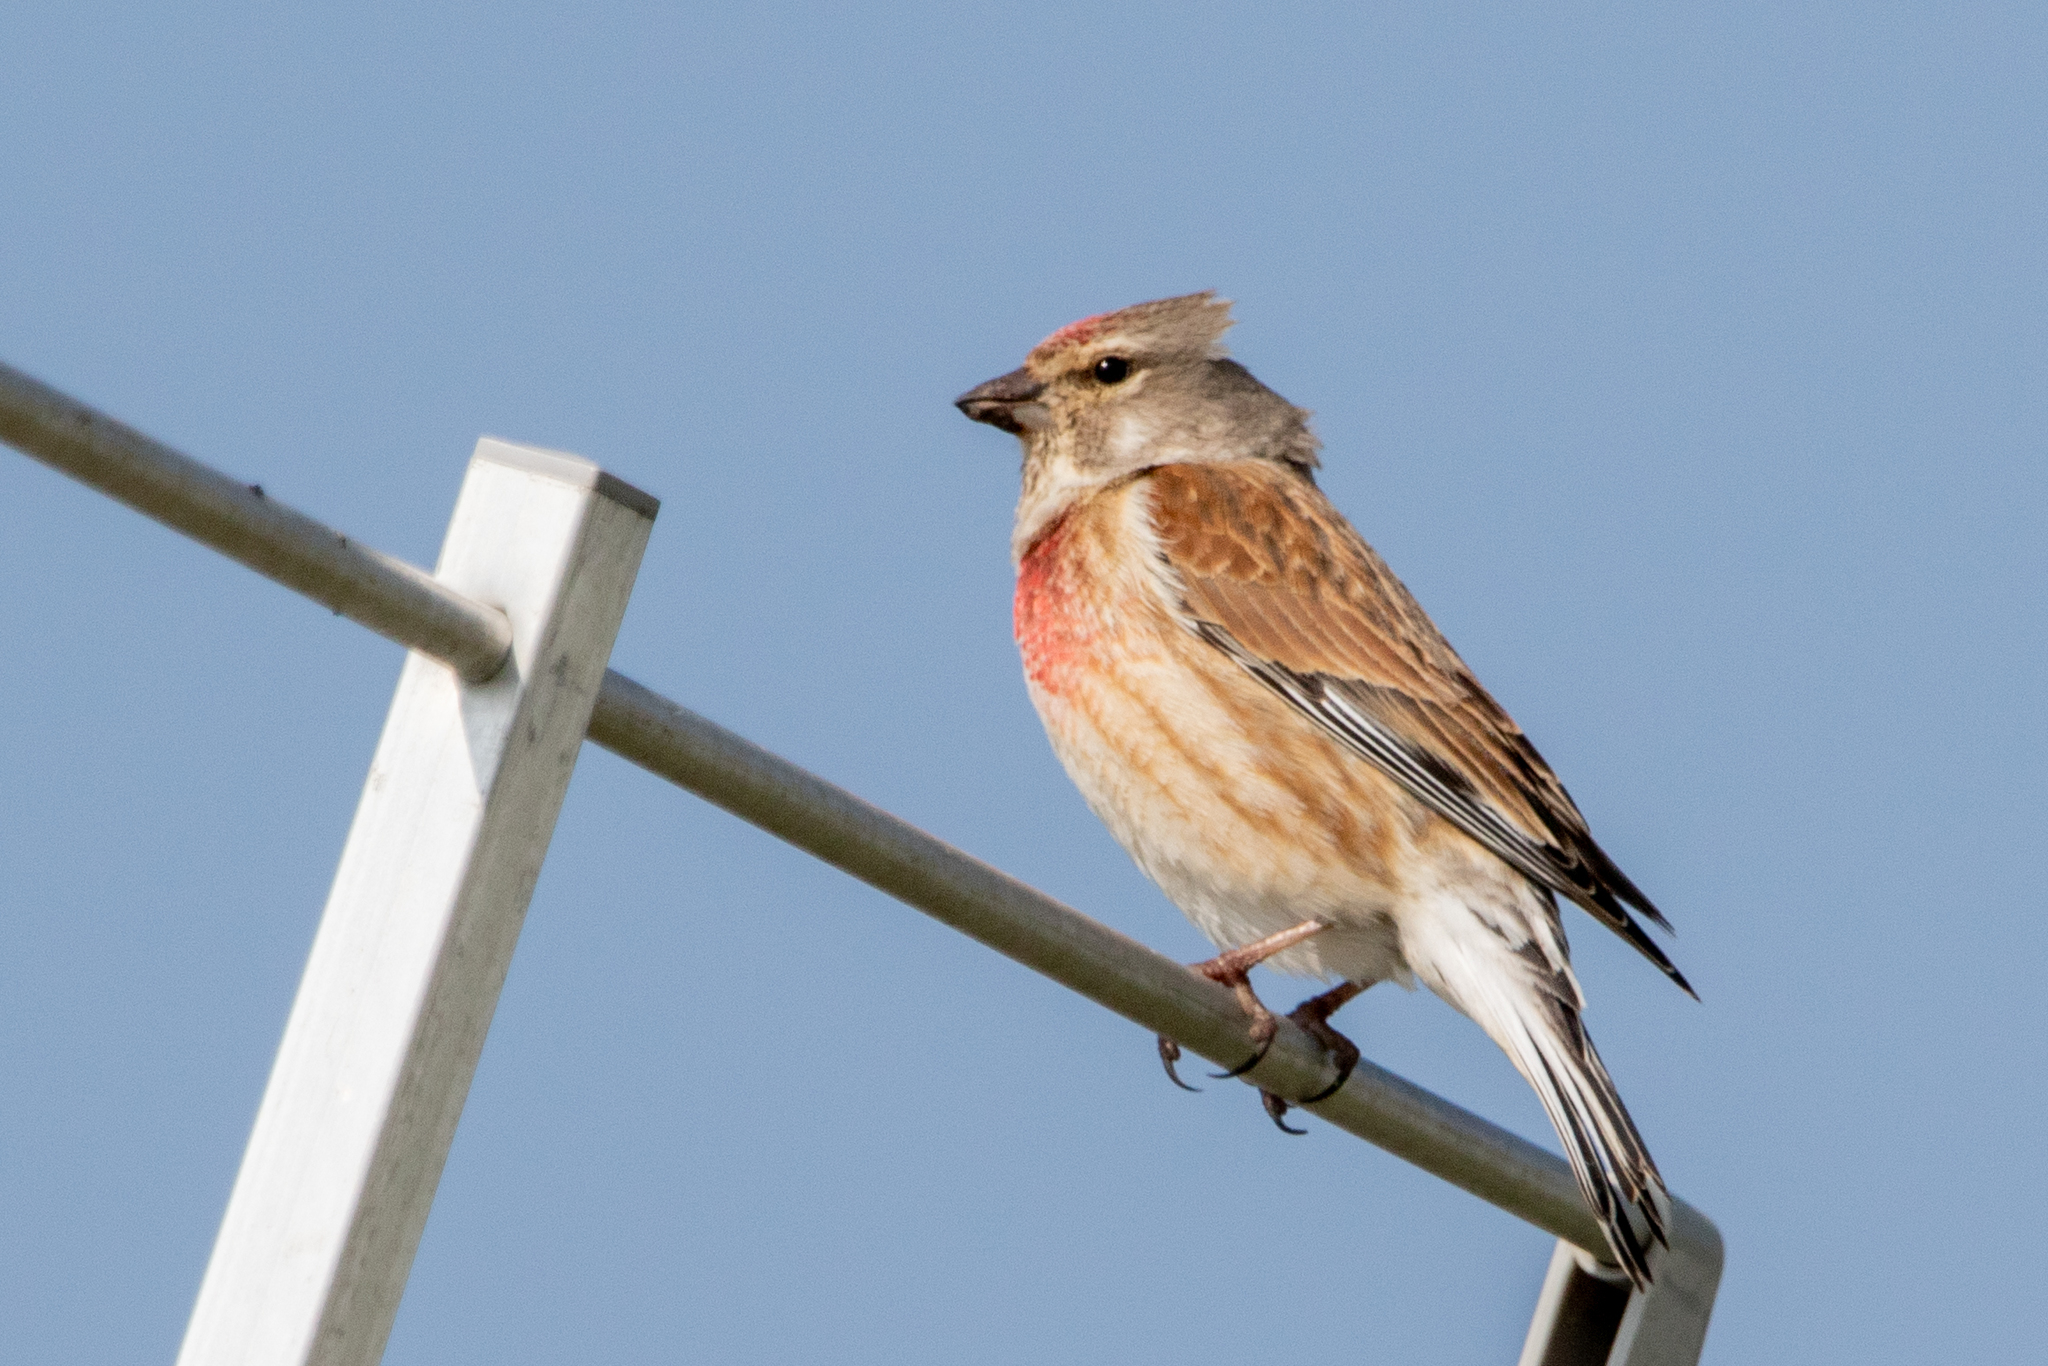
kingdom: Animalia
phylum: Chordata
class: Aves
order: Passeriformes
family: Fringillidae
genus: Linaria
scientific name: Linaria cannabina
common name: Common linnet
